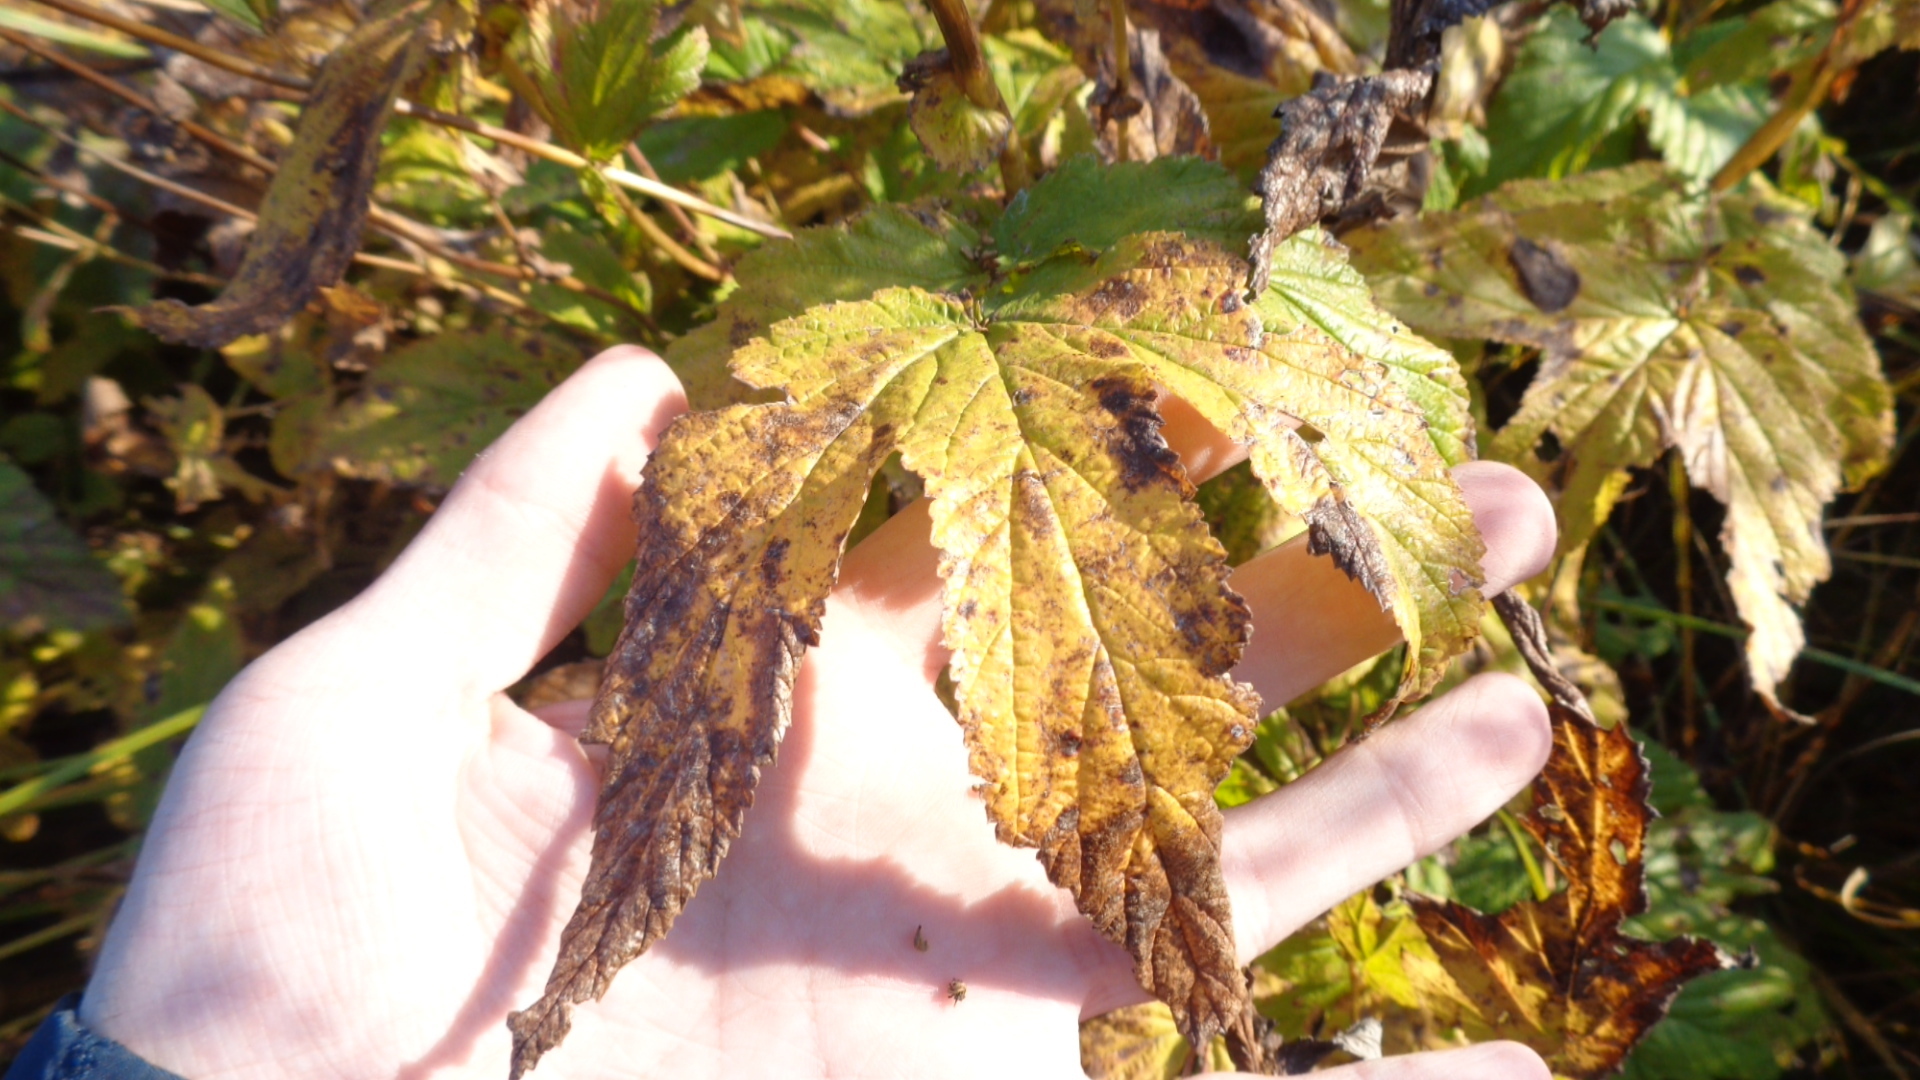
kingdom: Plantae
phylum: Tracheophyta
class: Magnoliopsida
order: Rosales
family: Rosaceae
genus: Filipendula
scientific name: Filipendula ulmaria
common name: Meadowsweet
